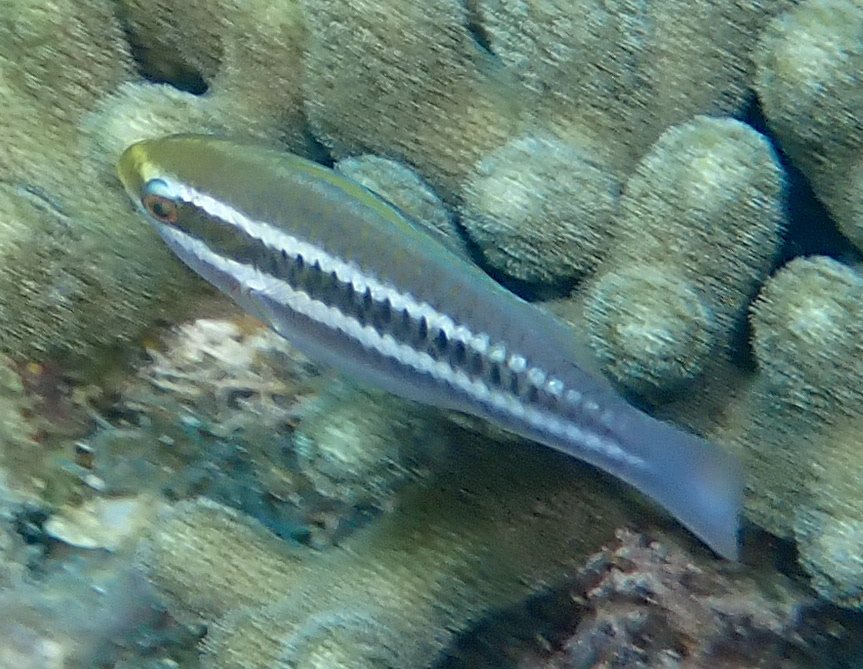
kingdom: Animalia
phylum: Chordata
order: Perciformes
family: Scaridae
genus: Scarus
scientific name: Scarus iseri
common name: Striped parrotfish
